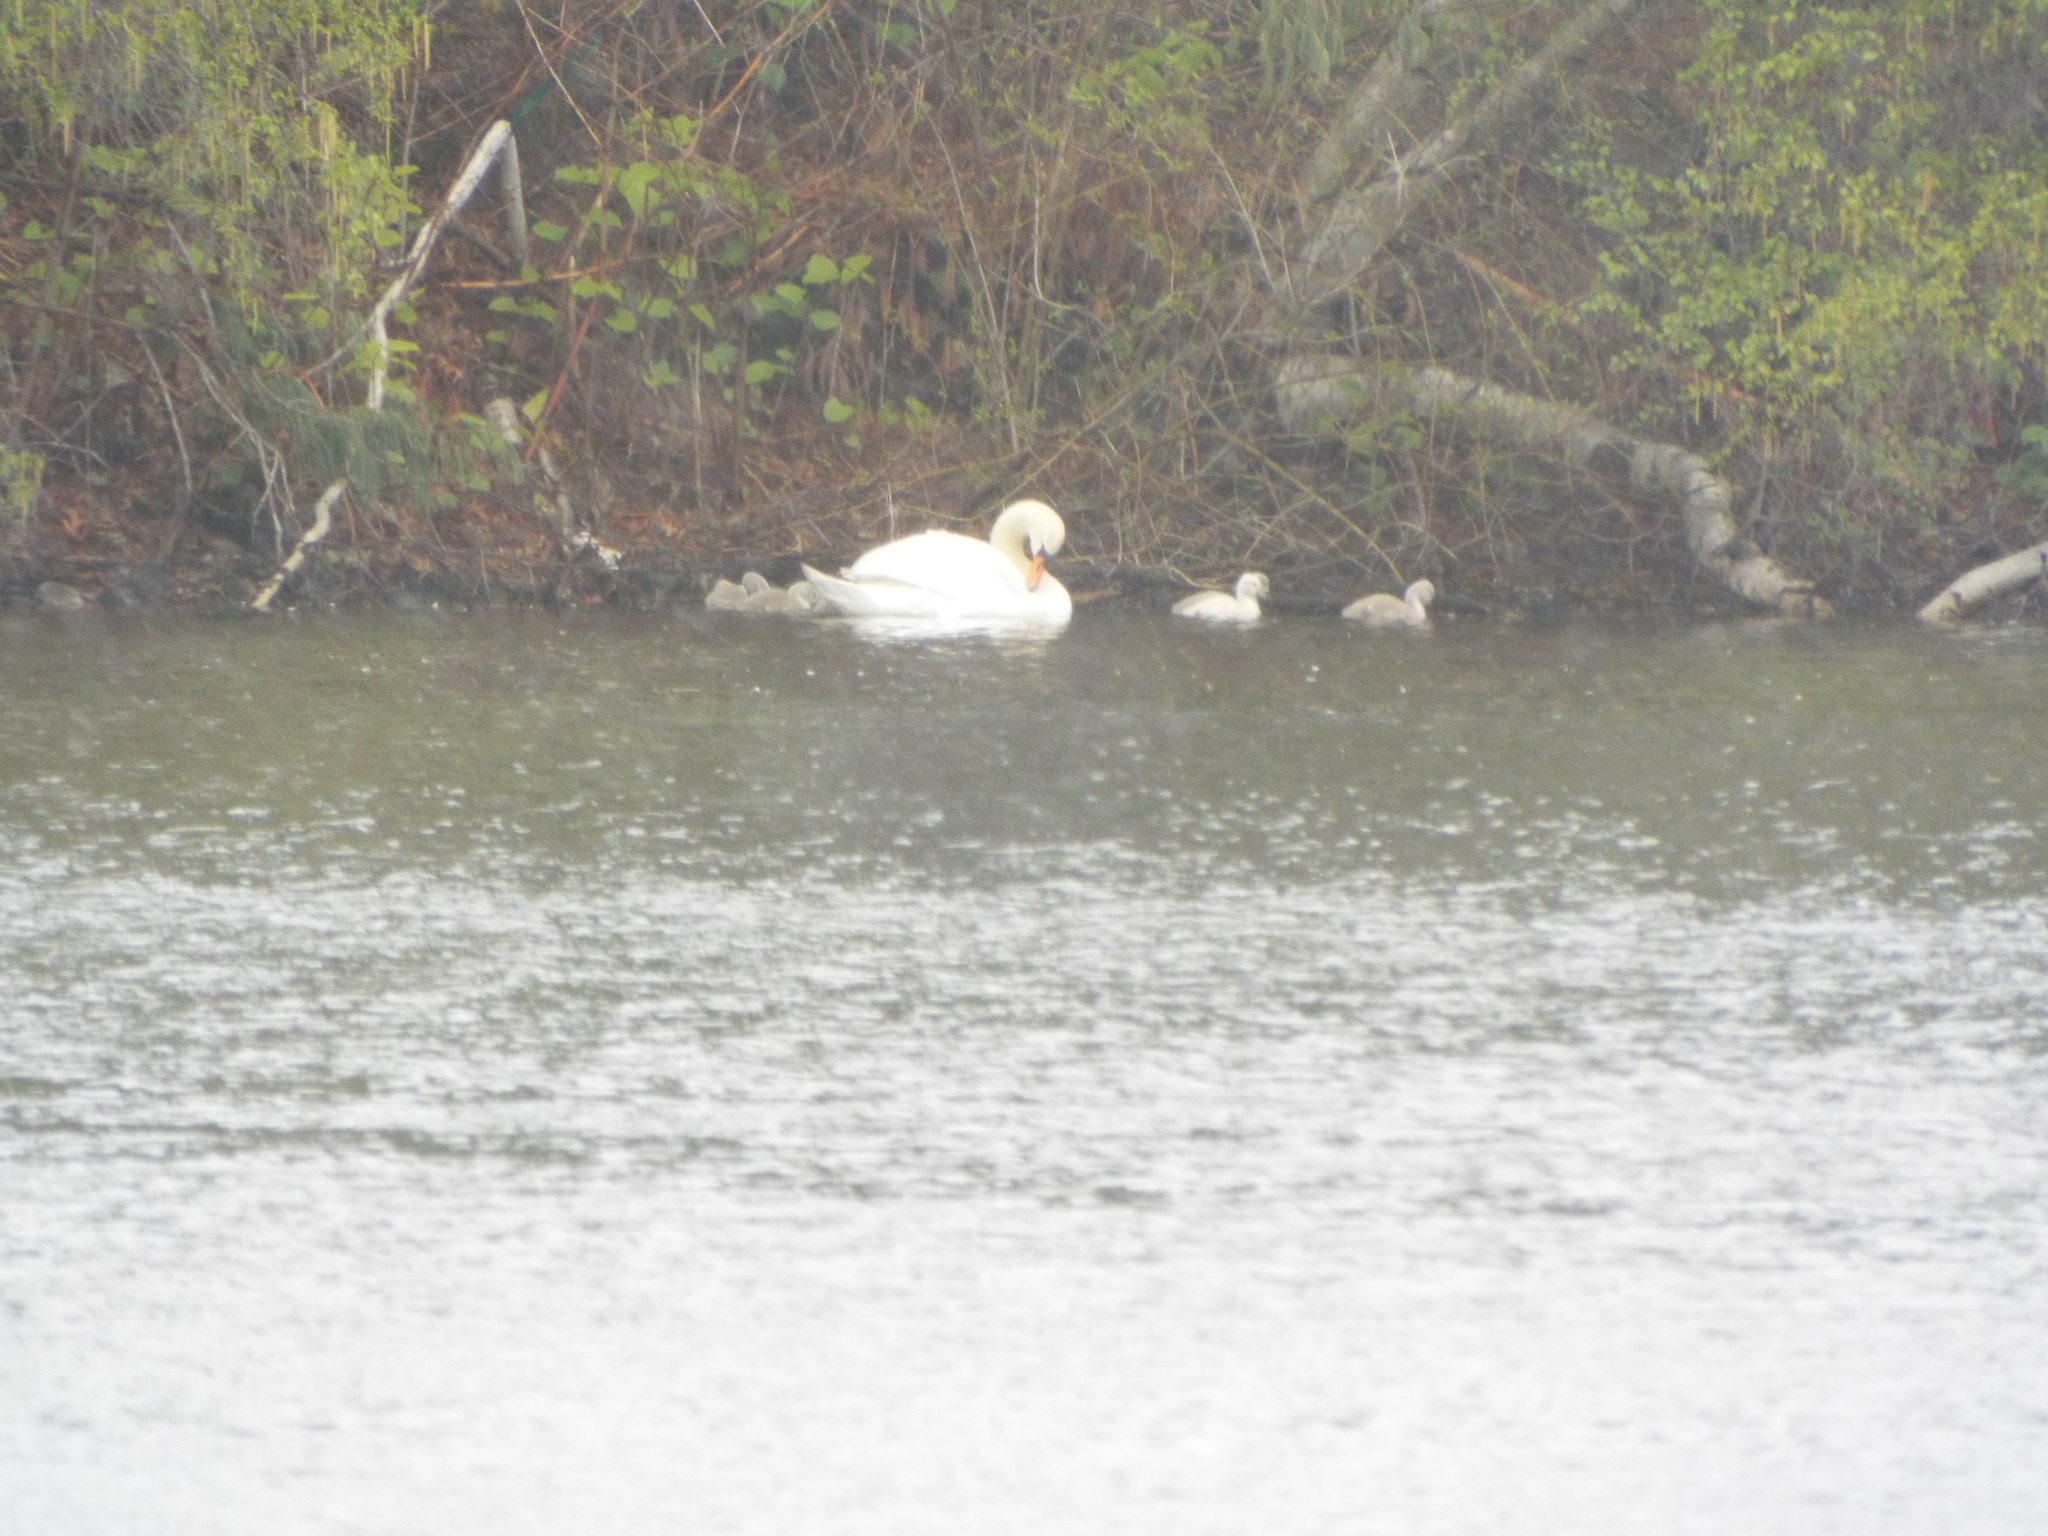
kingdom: Animalia
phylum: Chordata
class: Aves
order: Anseriformes
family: Anatidae
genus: Cygnus
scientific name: Cygnus olor
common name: Mute swan
